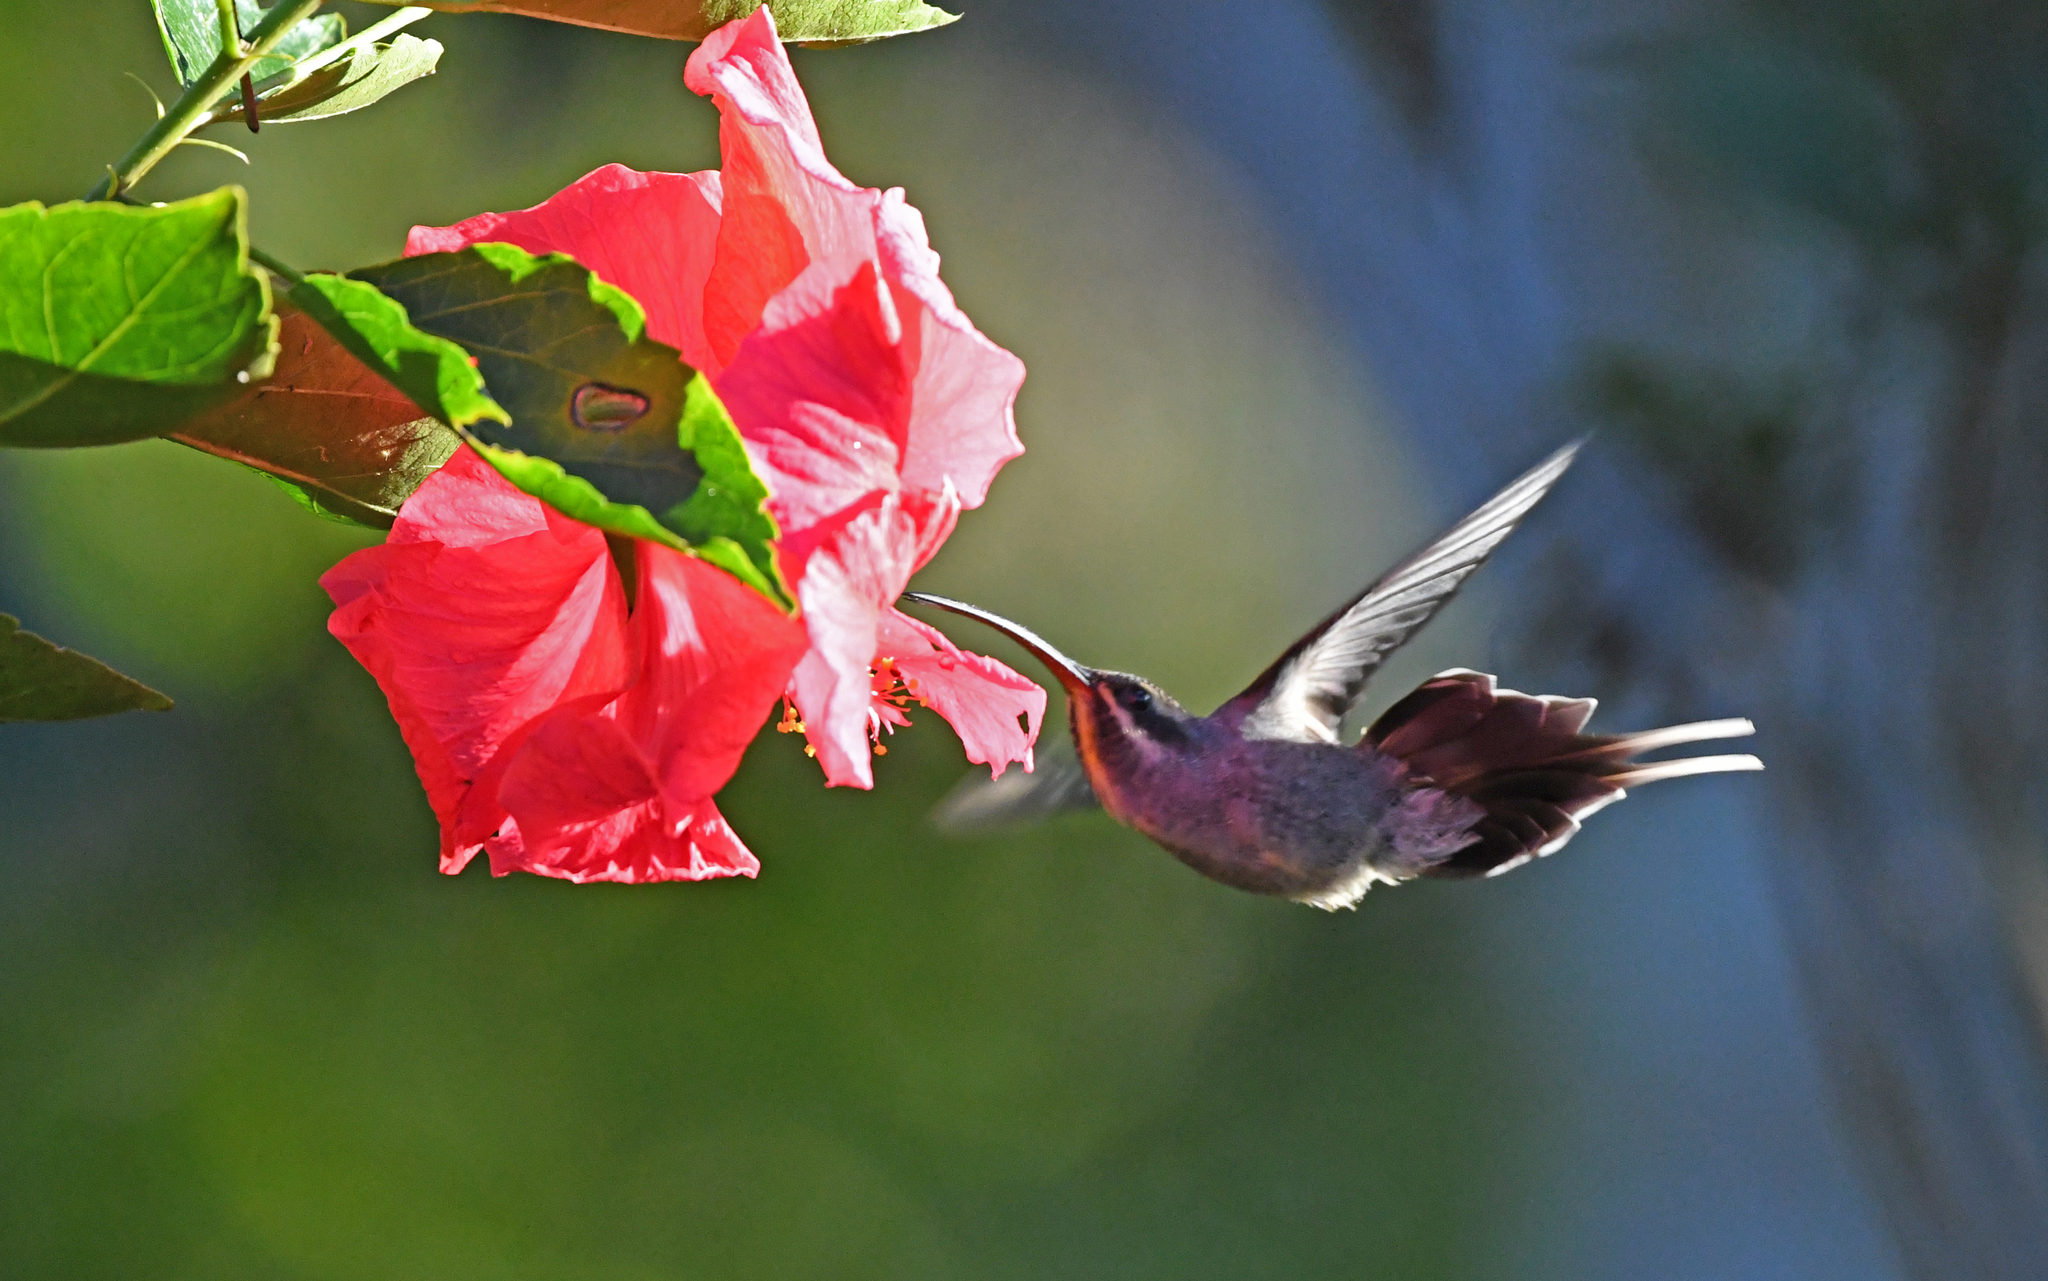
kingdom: Animalia
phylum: Chordata
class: Aves
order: Apodiformes
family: Trochilidae
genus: Phaethornis
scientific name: Phaethornis guy
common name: Green hermit
